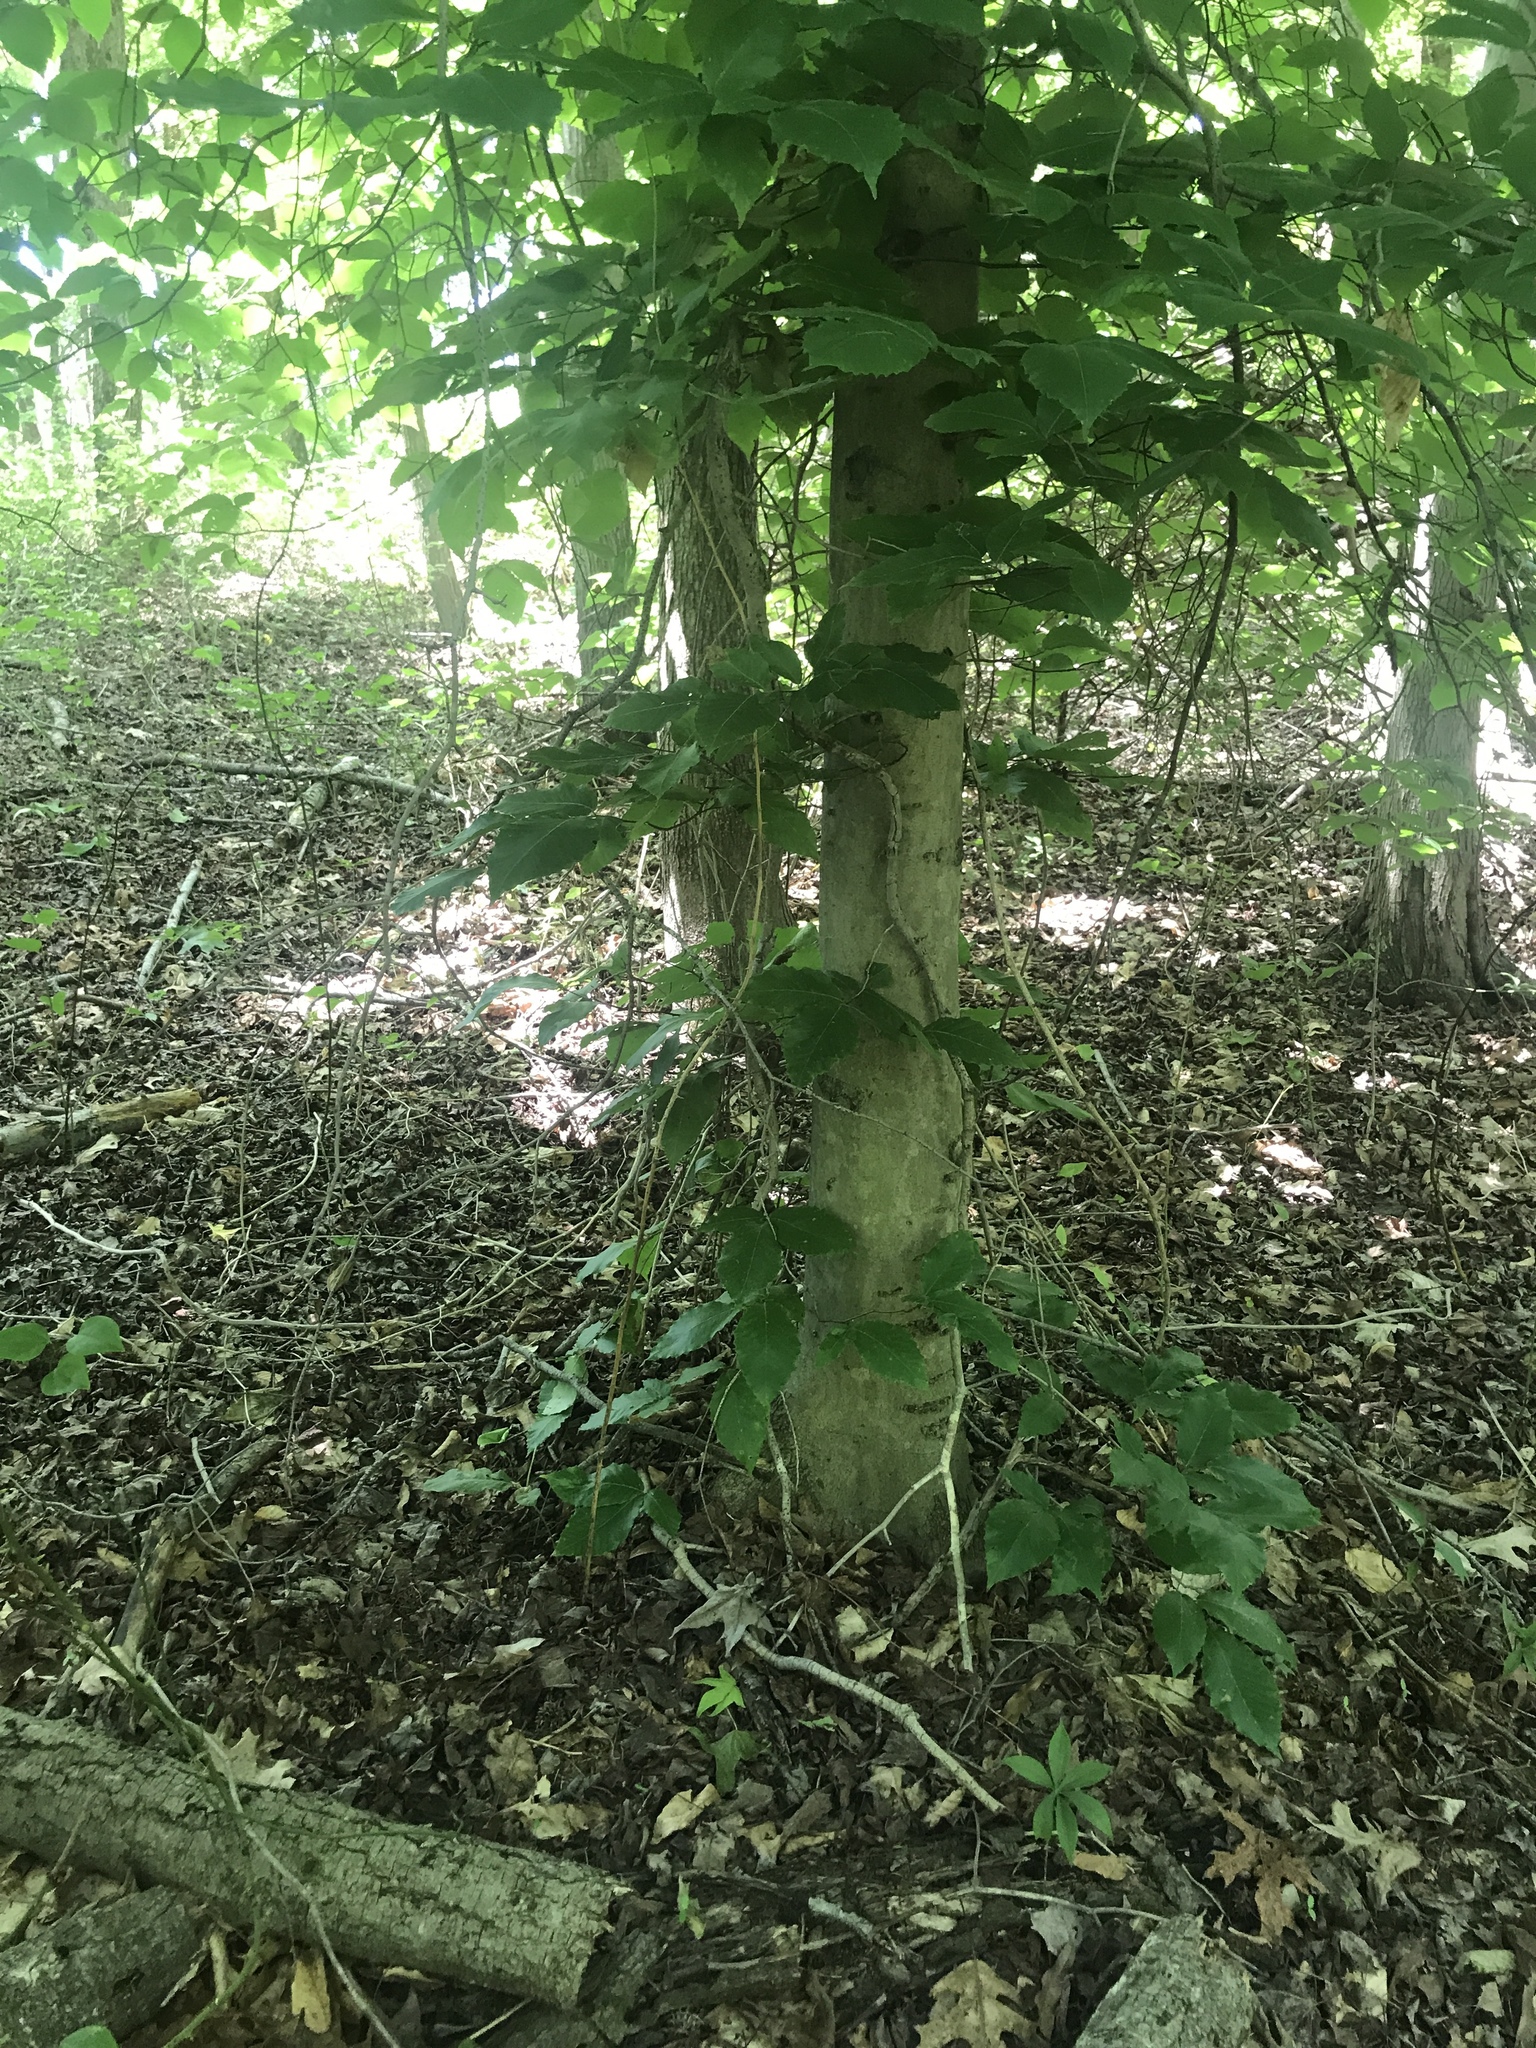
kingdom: Plantae
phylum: Tracheophyta
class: Magnoliopsida
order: Fagales
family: Fagaceae
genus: Fagus
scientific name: Fagus grandifolia
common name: American beech
